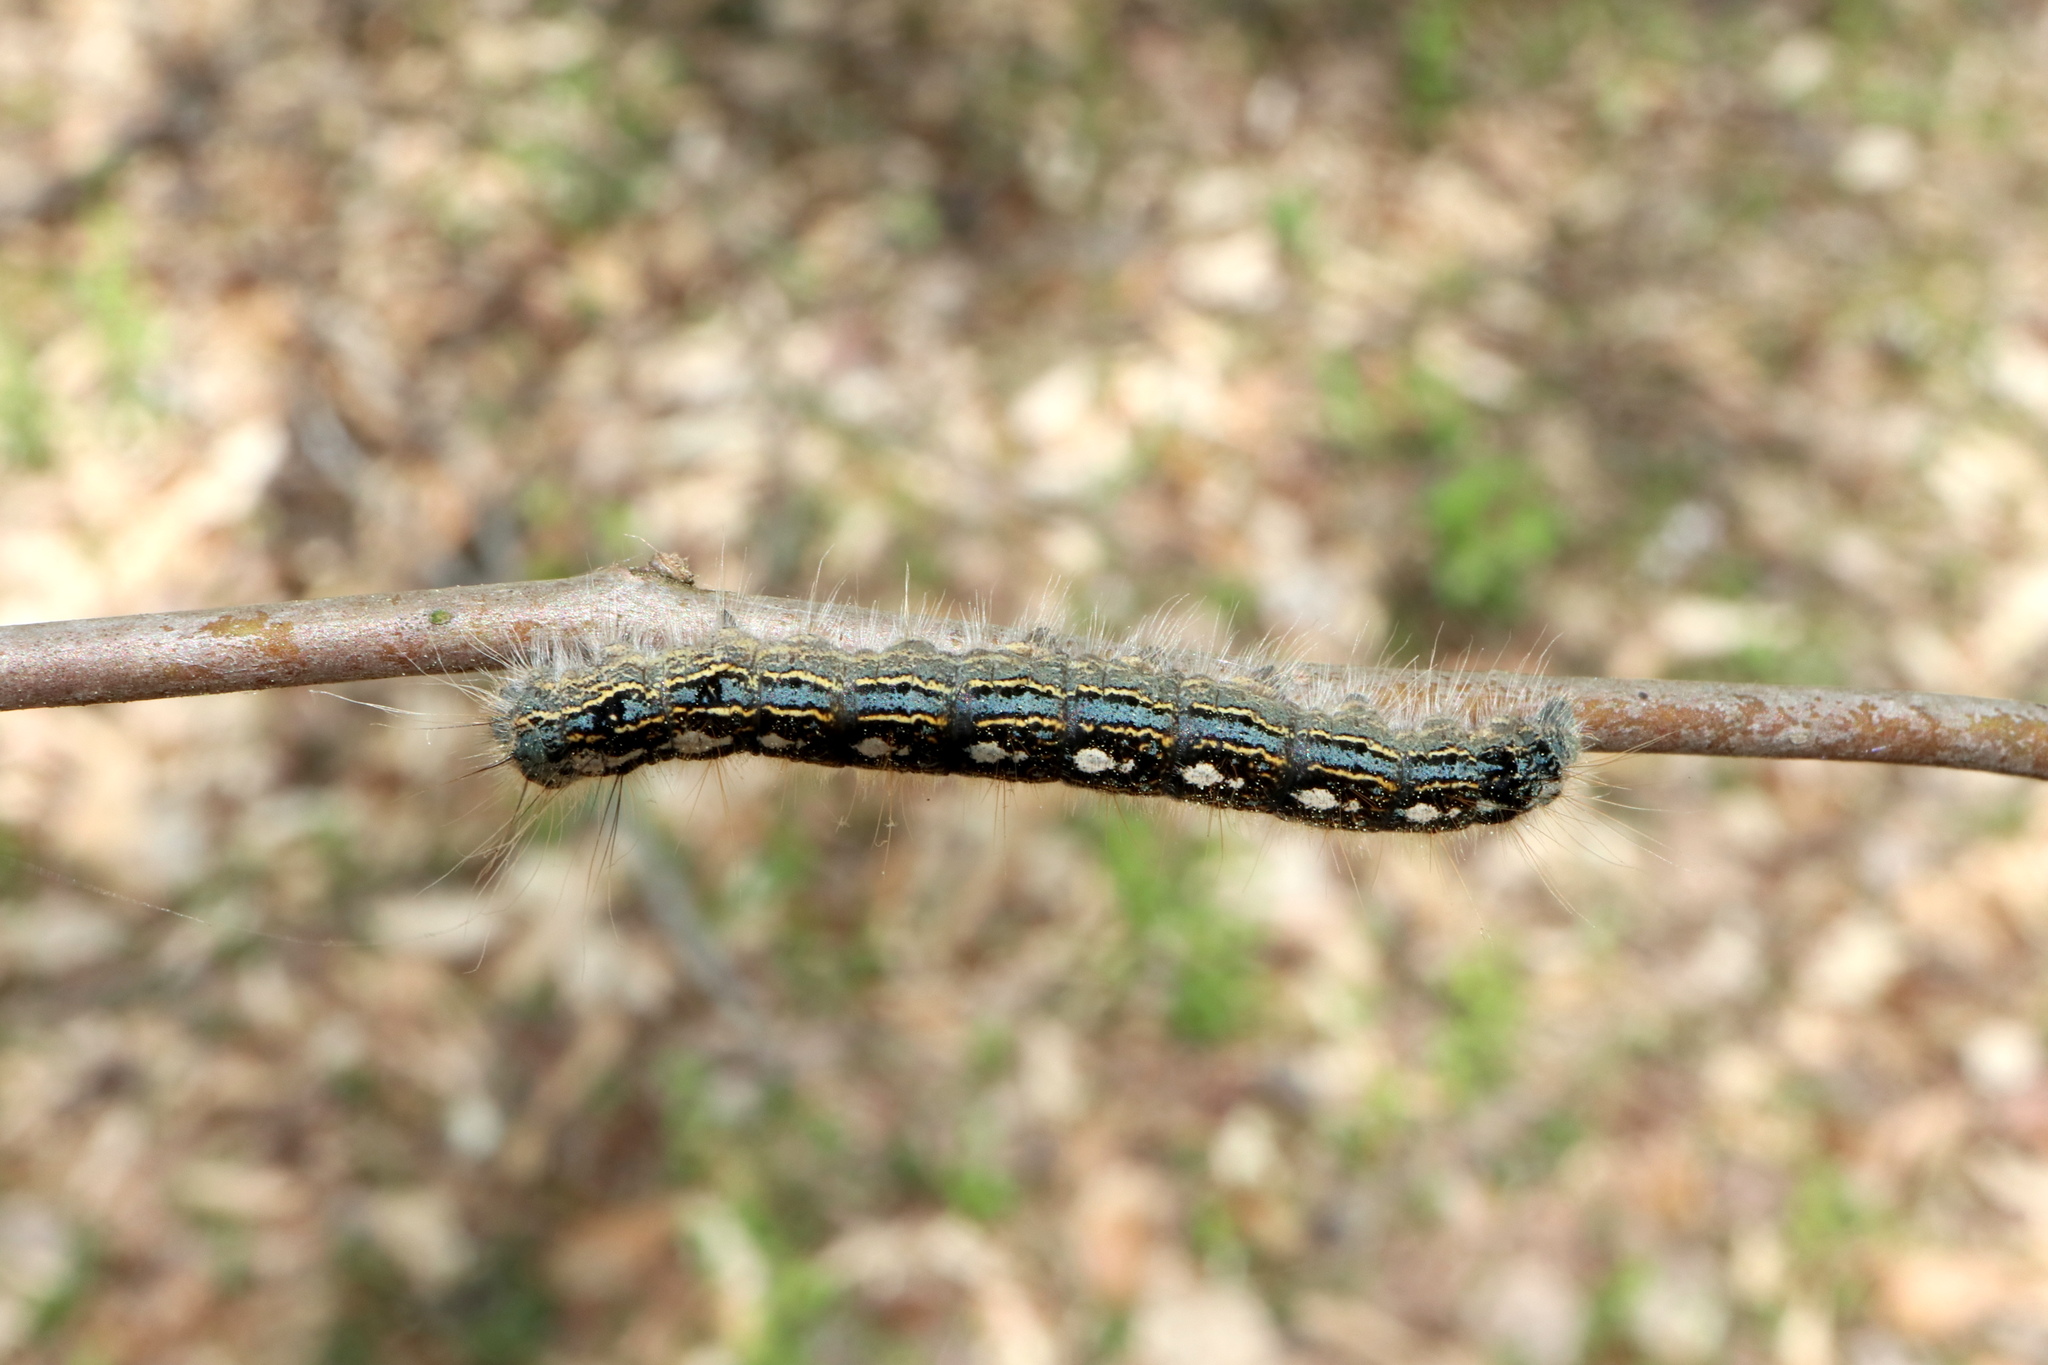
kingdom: Animalia
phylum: Arthropoda
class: Insecta
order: Lepidoptera
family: Lasiocampidae
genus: Malacosoma
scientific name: Malacosoma disstria
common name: Forest tent caterpillar
